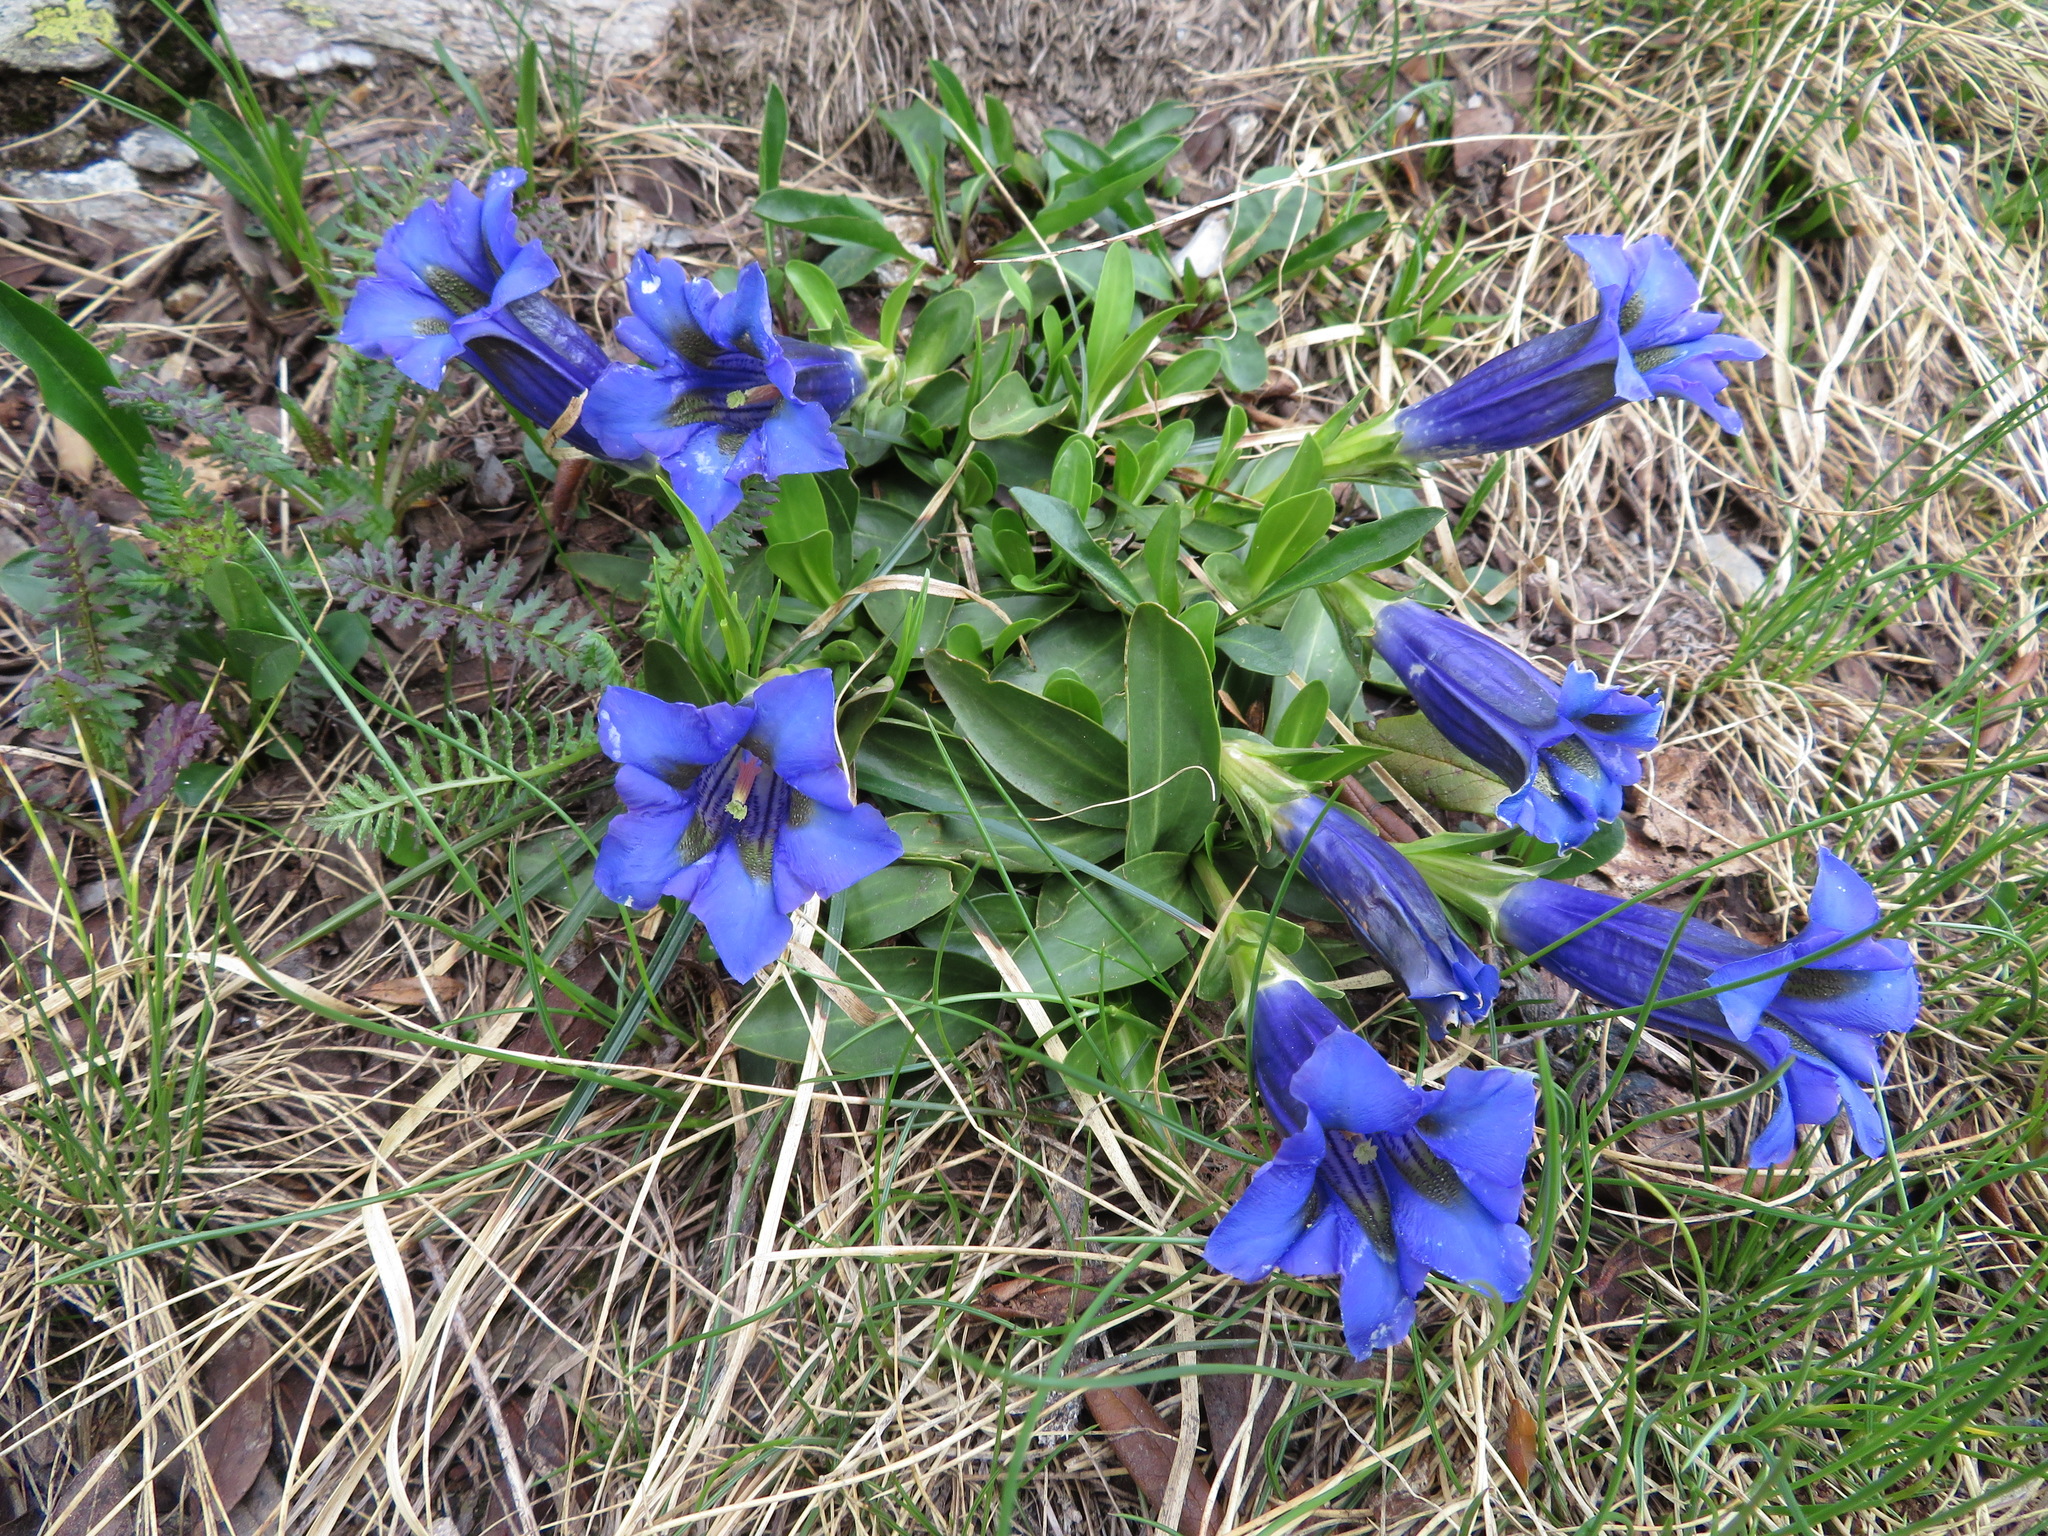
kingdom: Plantae
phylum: Tracheophyta
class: Magnoliopsida
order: Gentianales
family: Gentianaceae
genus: Gentiana
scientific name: Gentiana acaulis
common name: Trumpet gentian
